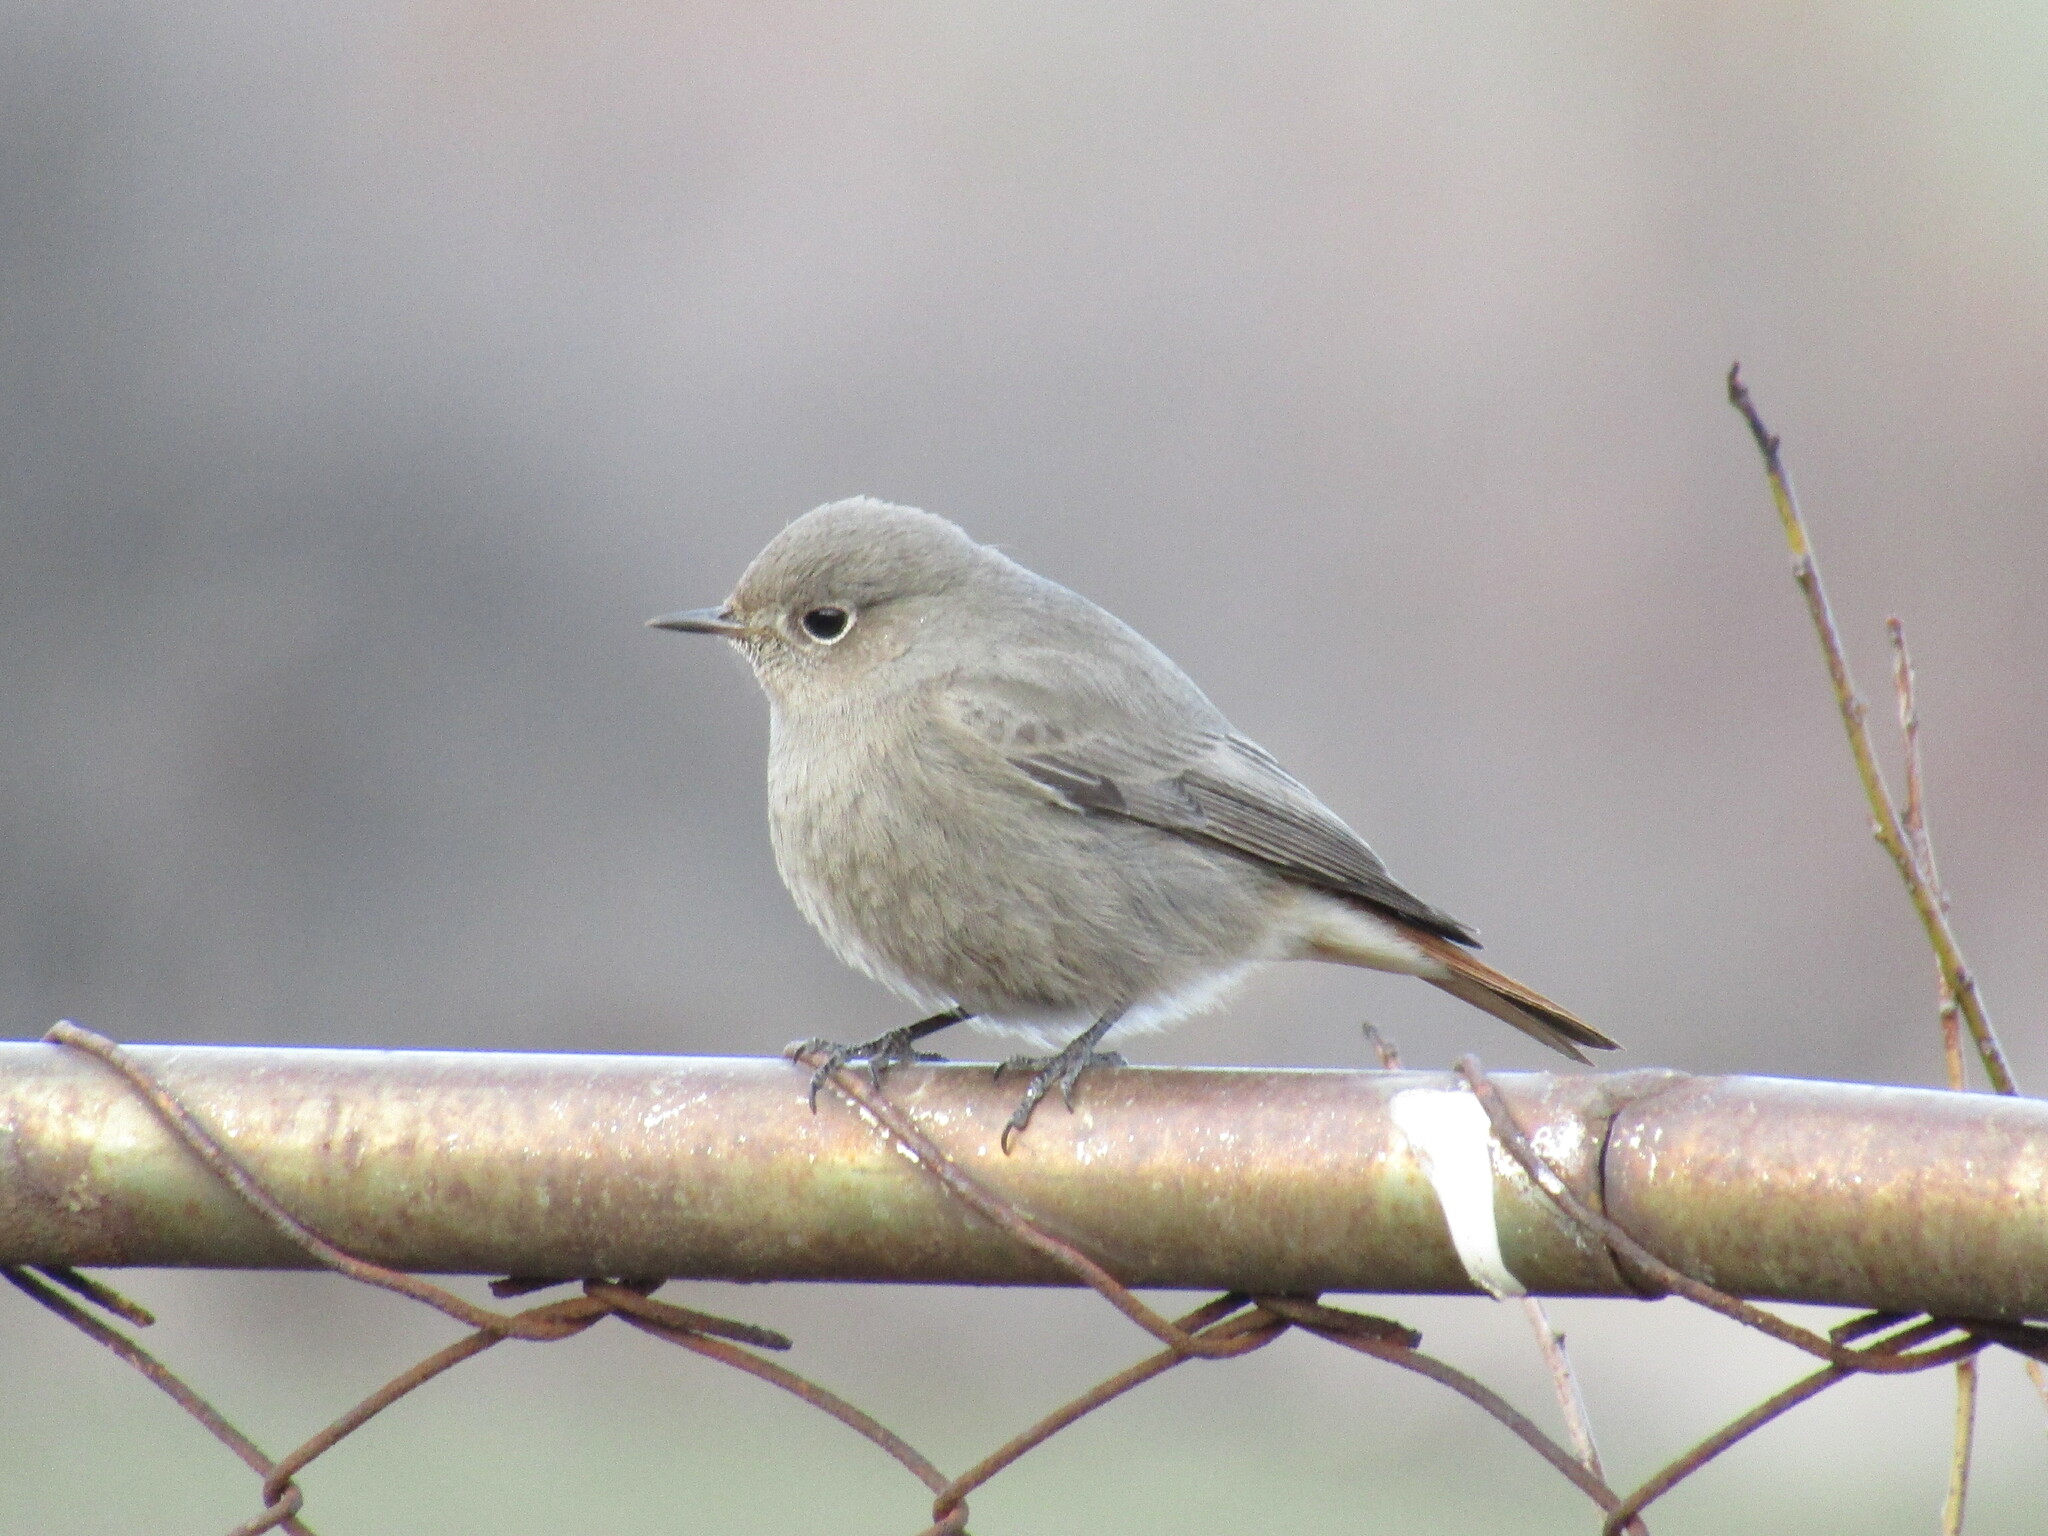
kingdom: Animalia
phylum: Chordata
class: Aves
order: Passeriformes
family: Muscicapidae
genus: Phoenicurus
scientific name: Phoenicurus ochruros
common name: Black redstart
